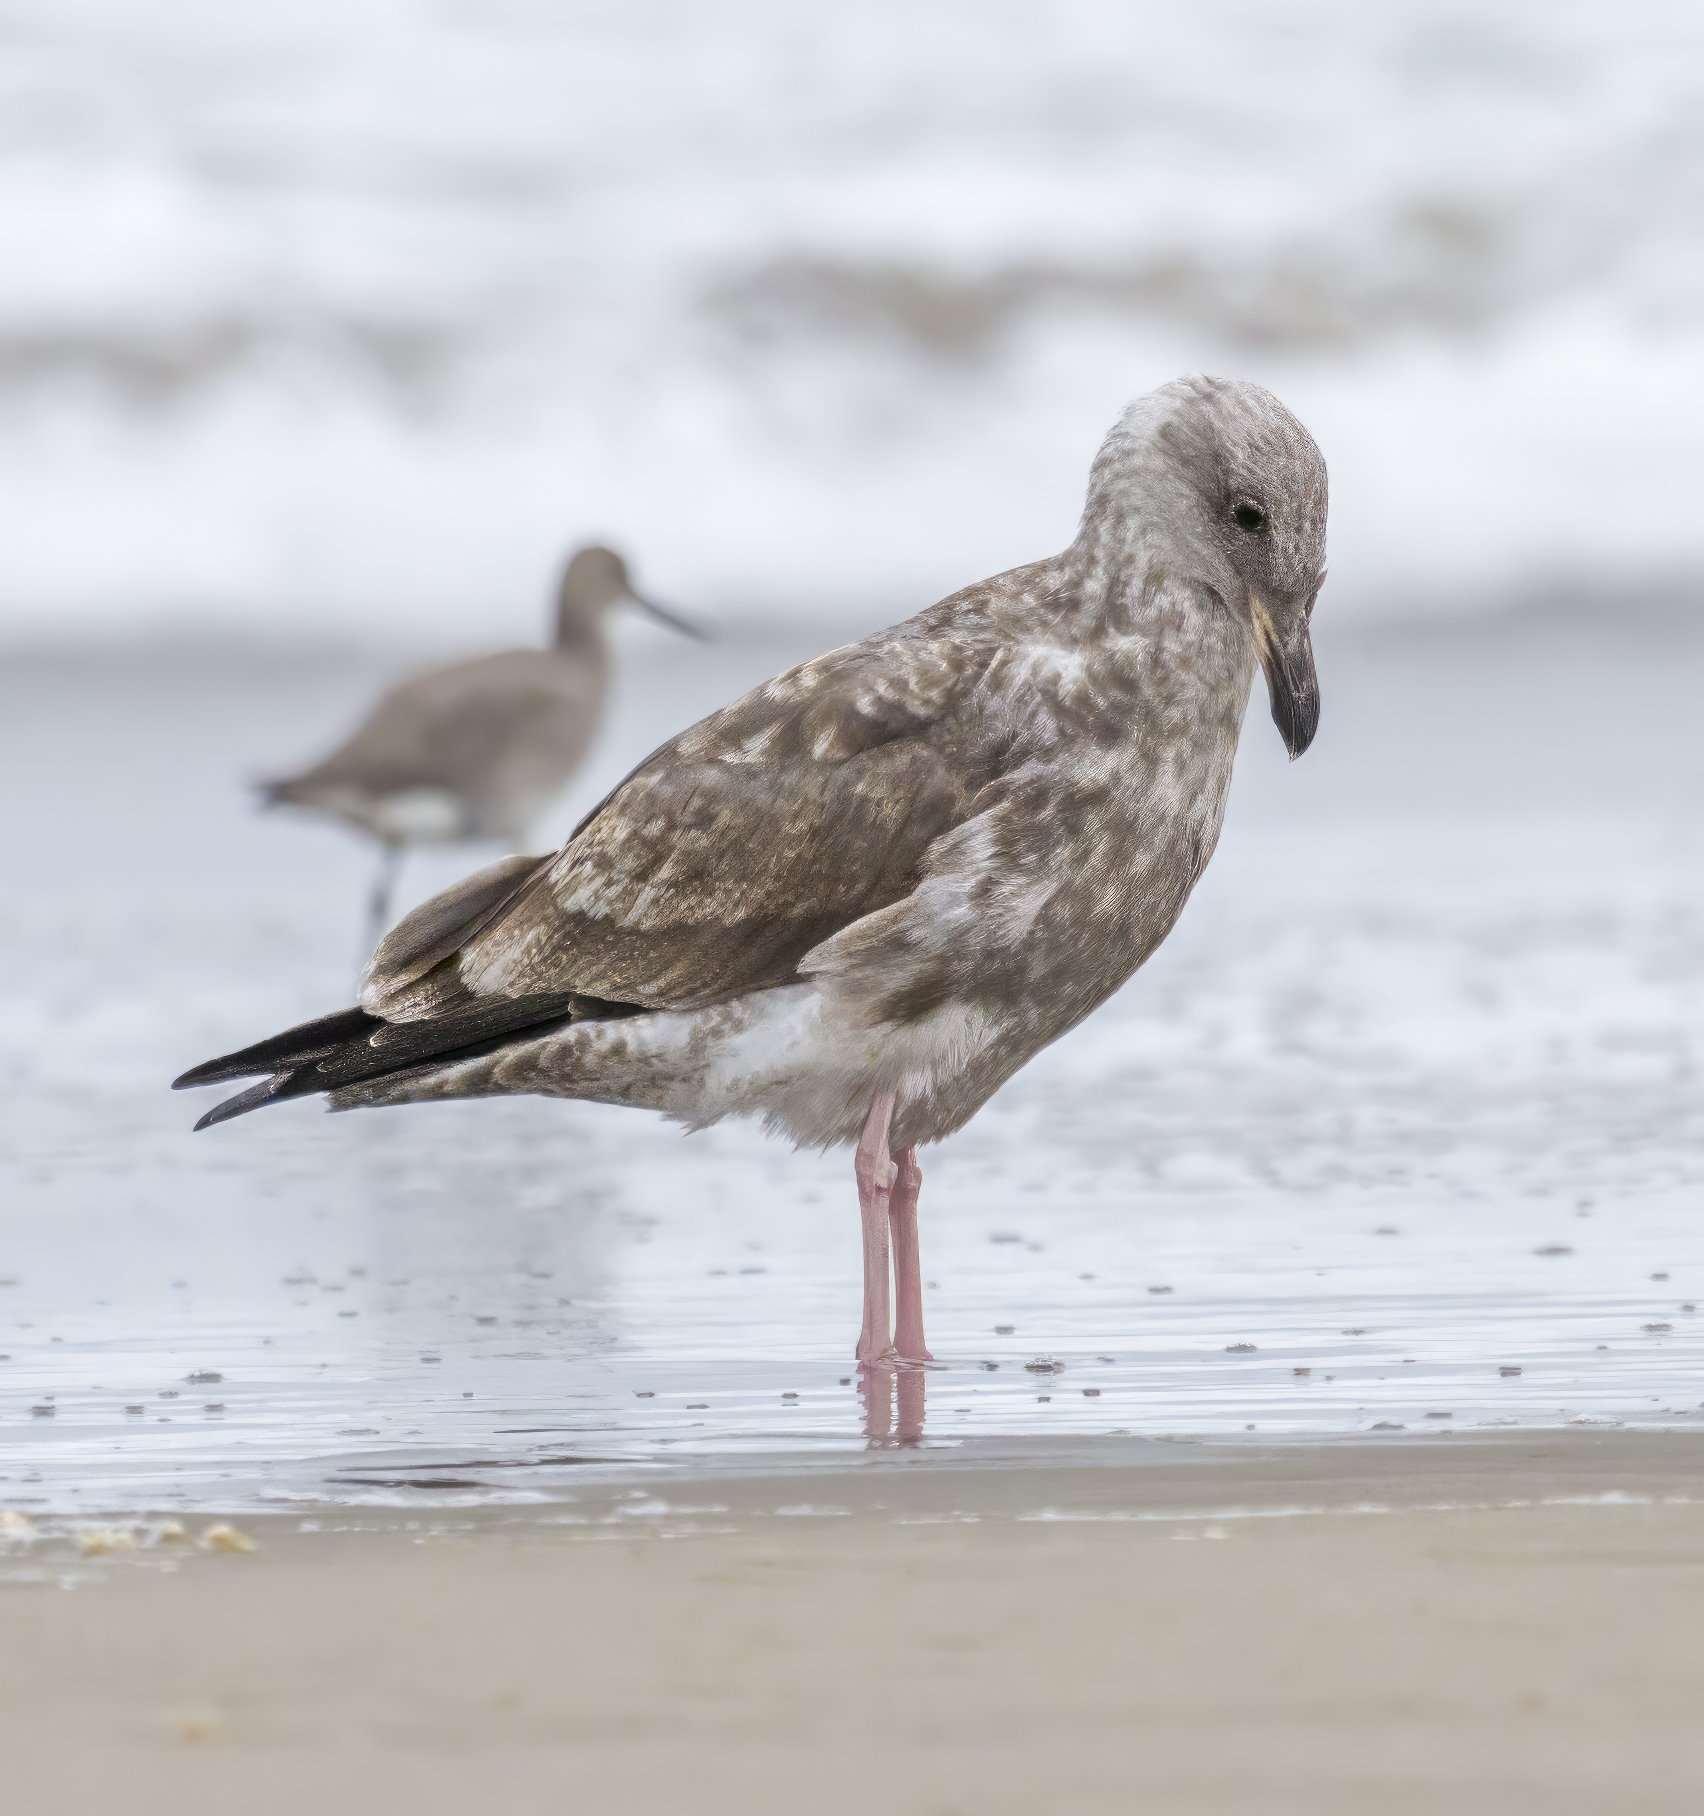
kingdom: Animalia
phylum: Chordata
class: Aves
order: Charadriiformes
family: Laridae
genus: Larus
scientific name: Larus occidentalis
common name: Western gull
